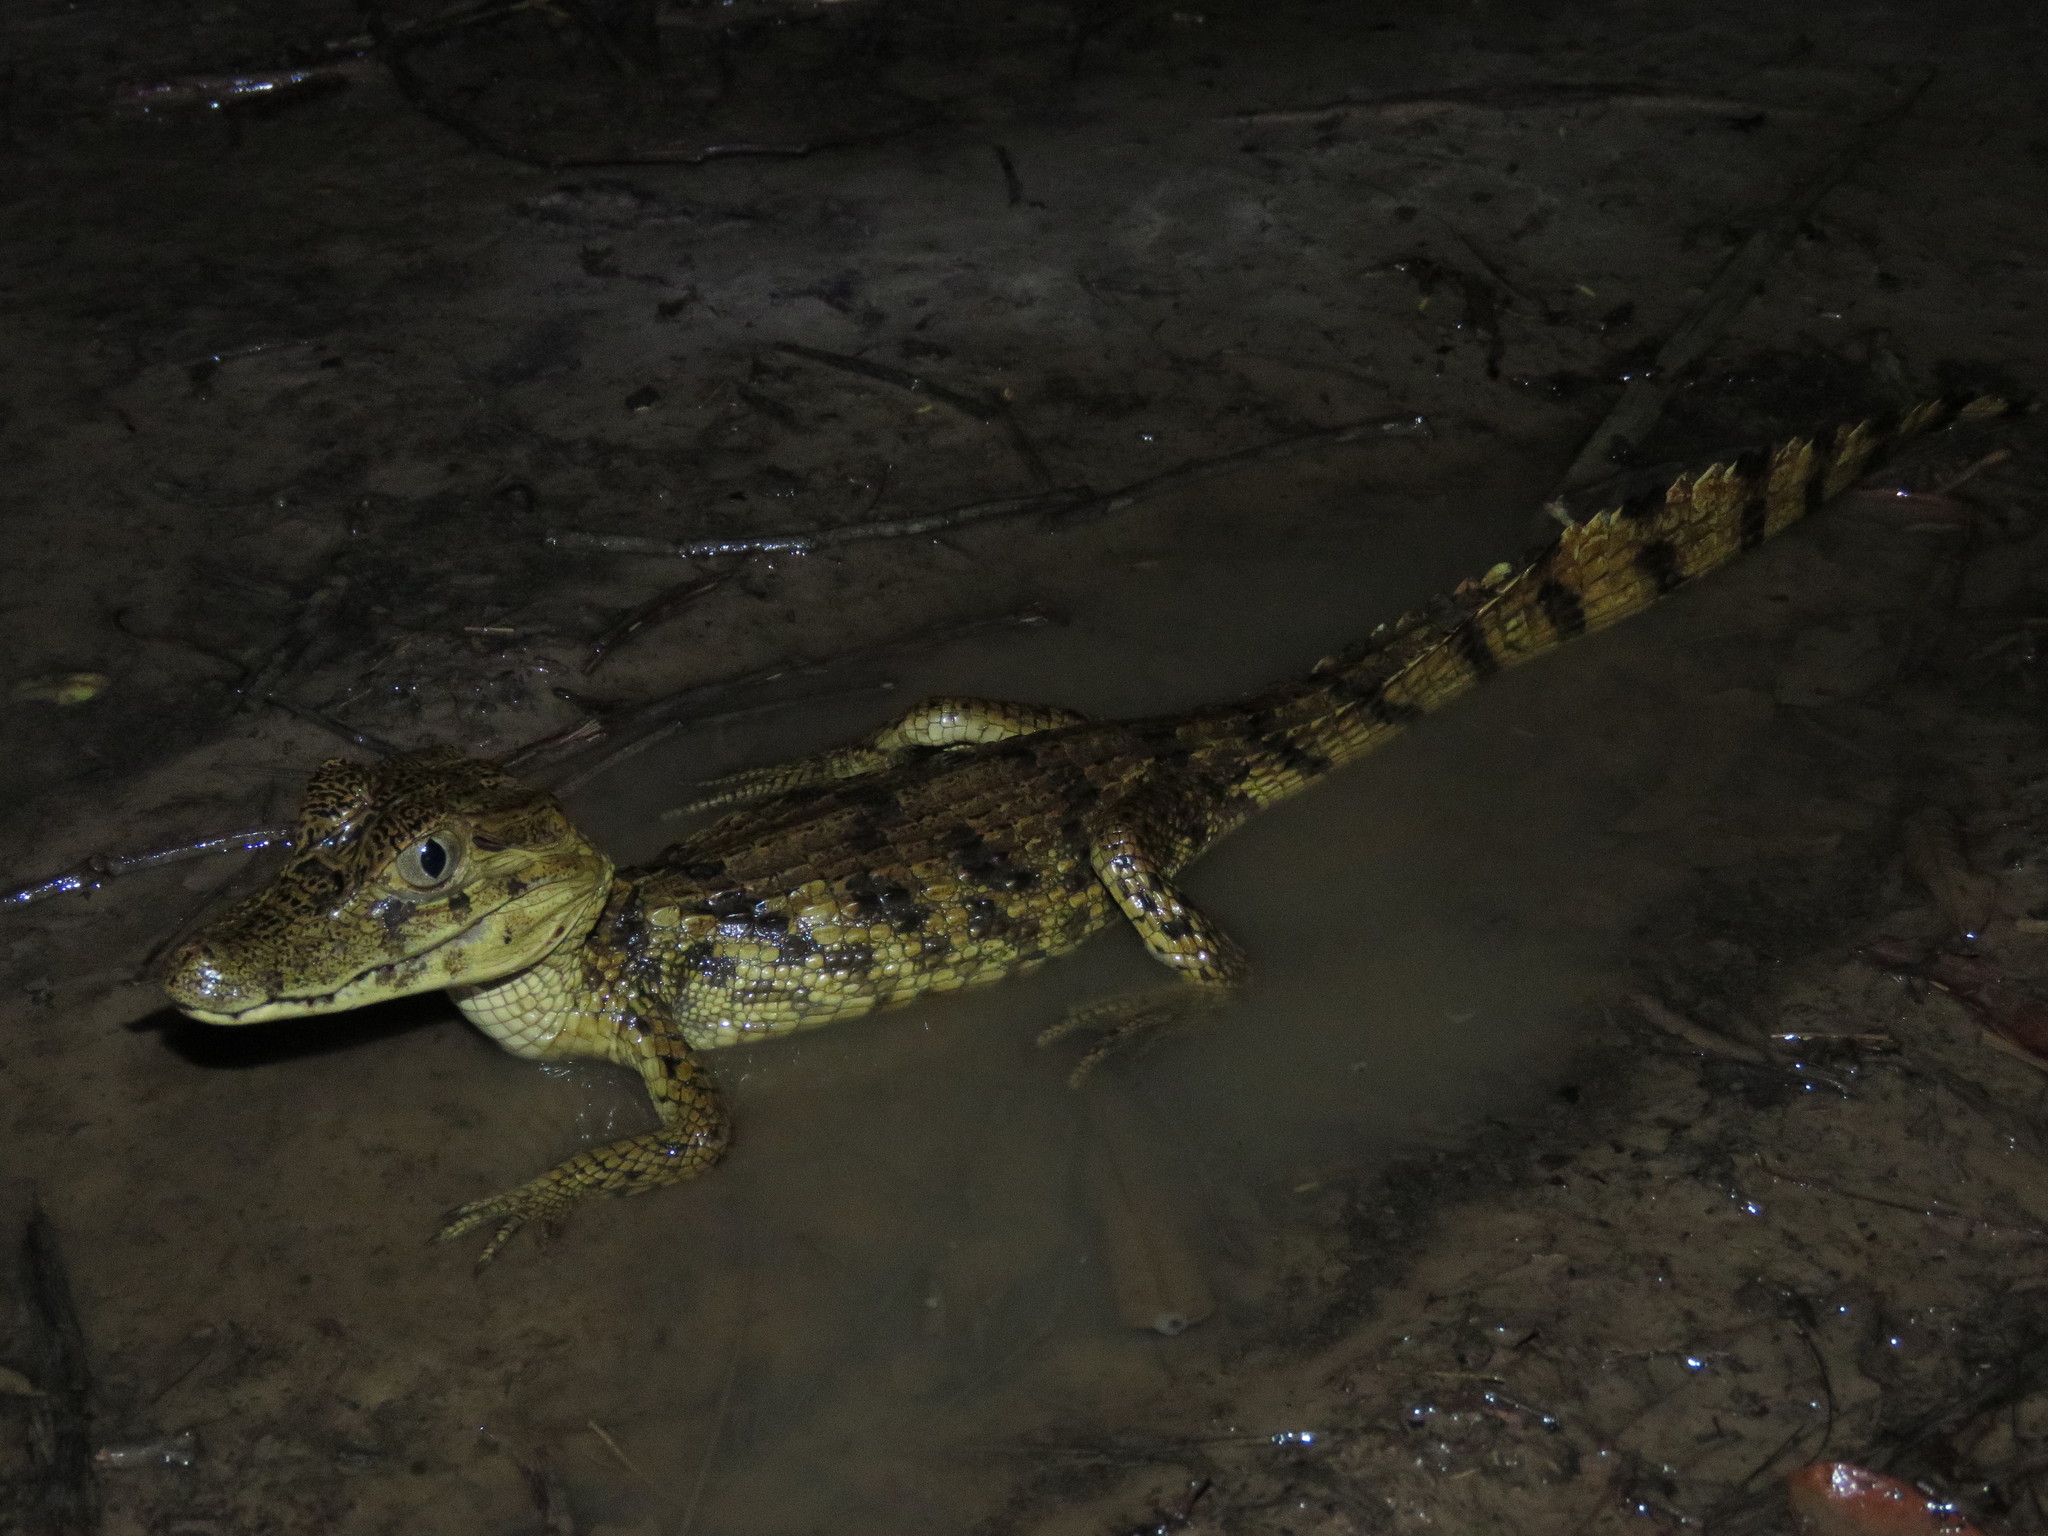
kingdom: Animalia
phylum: Chordata
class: Crocodylia
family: Alligatoridae
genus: Caiman
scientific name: Caiman yacare
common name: Yacare caiman
